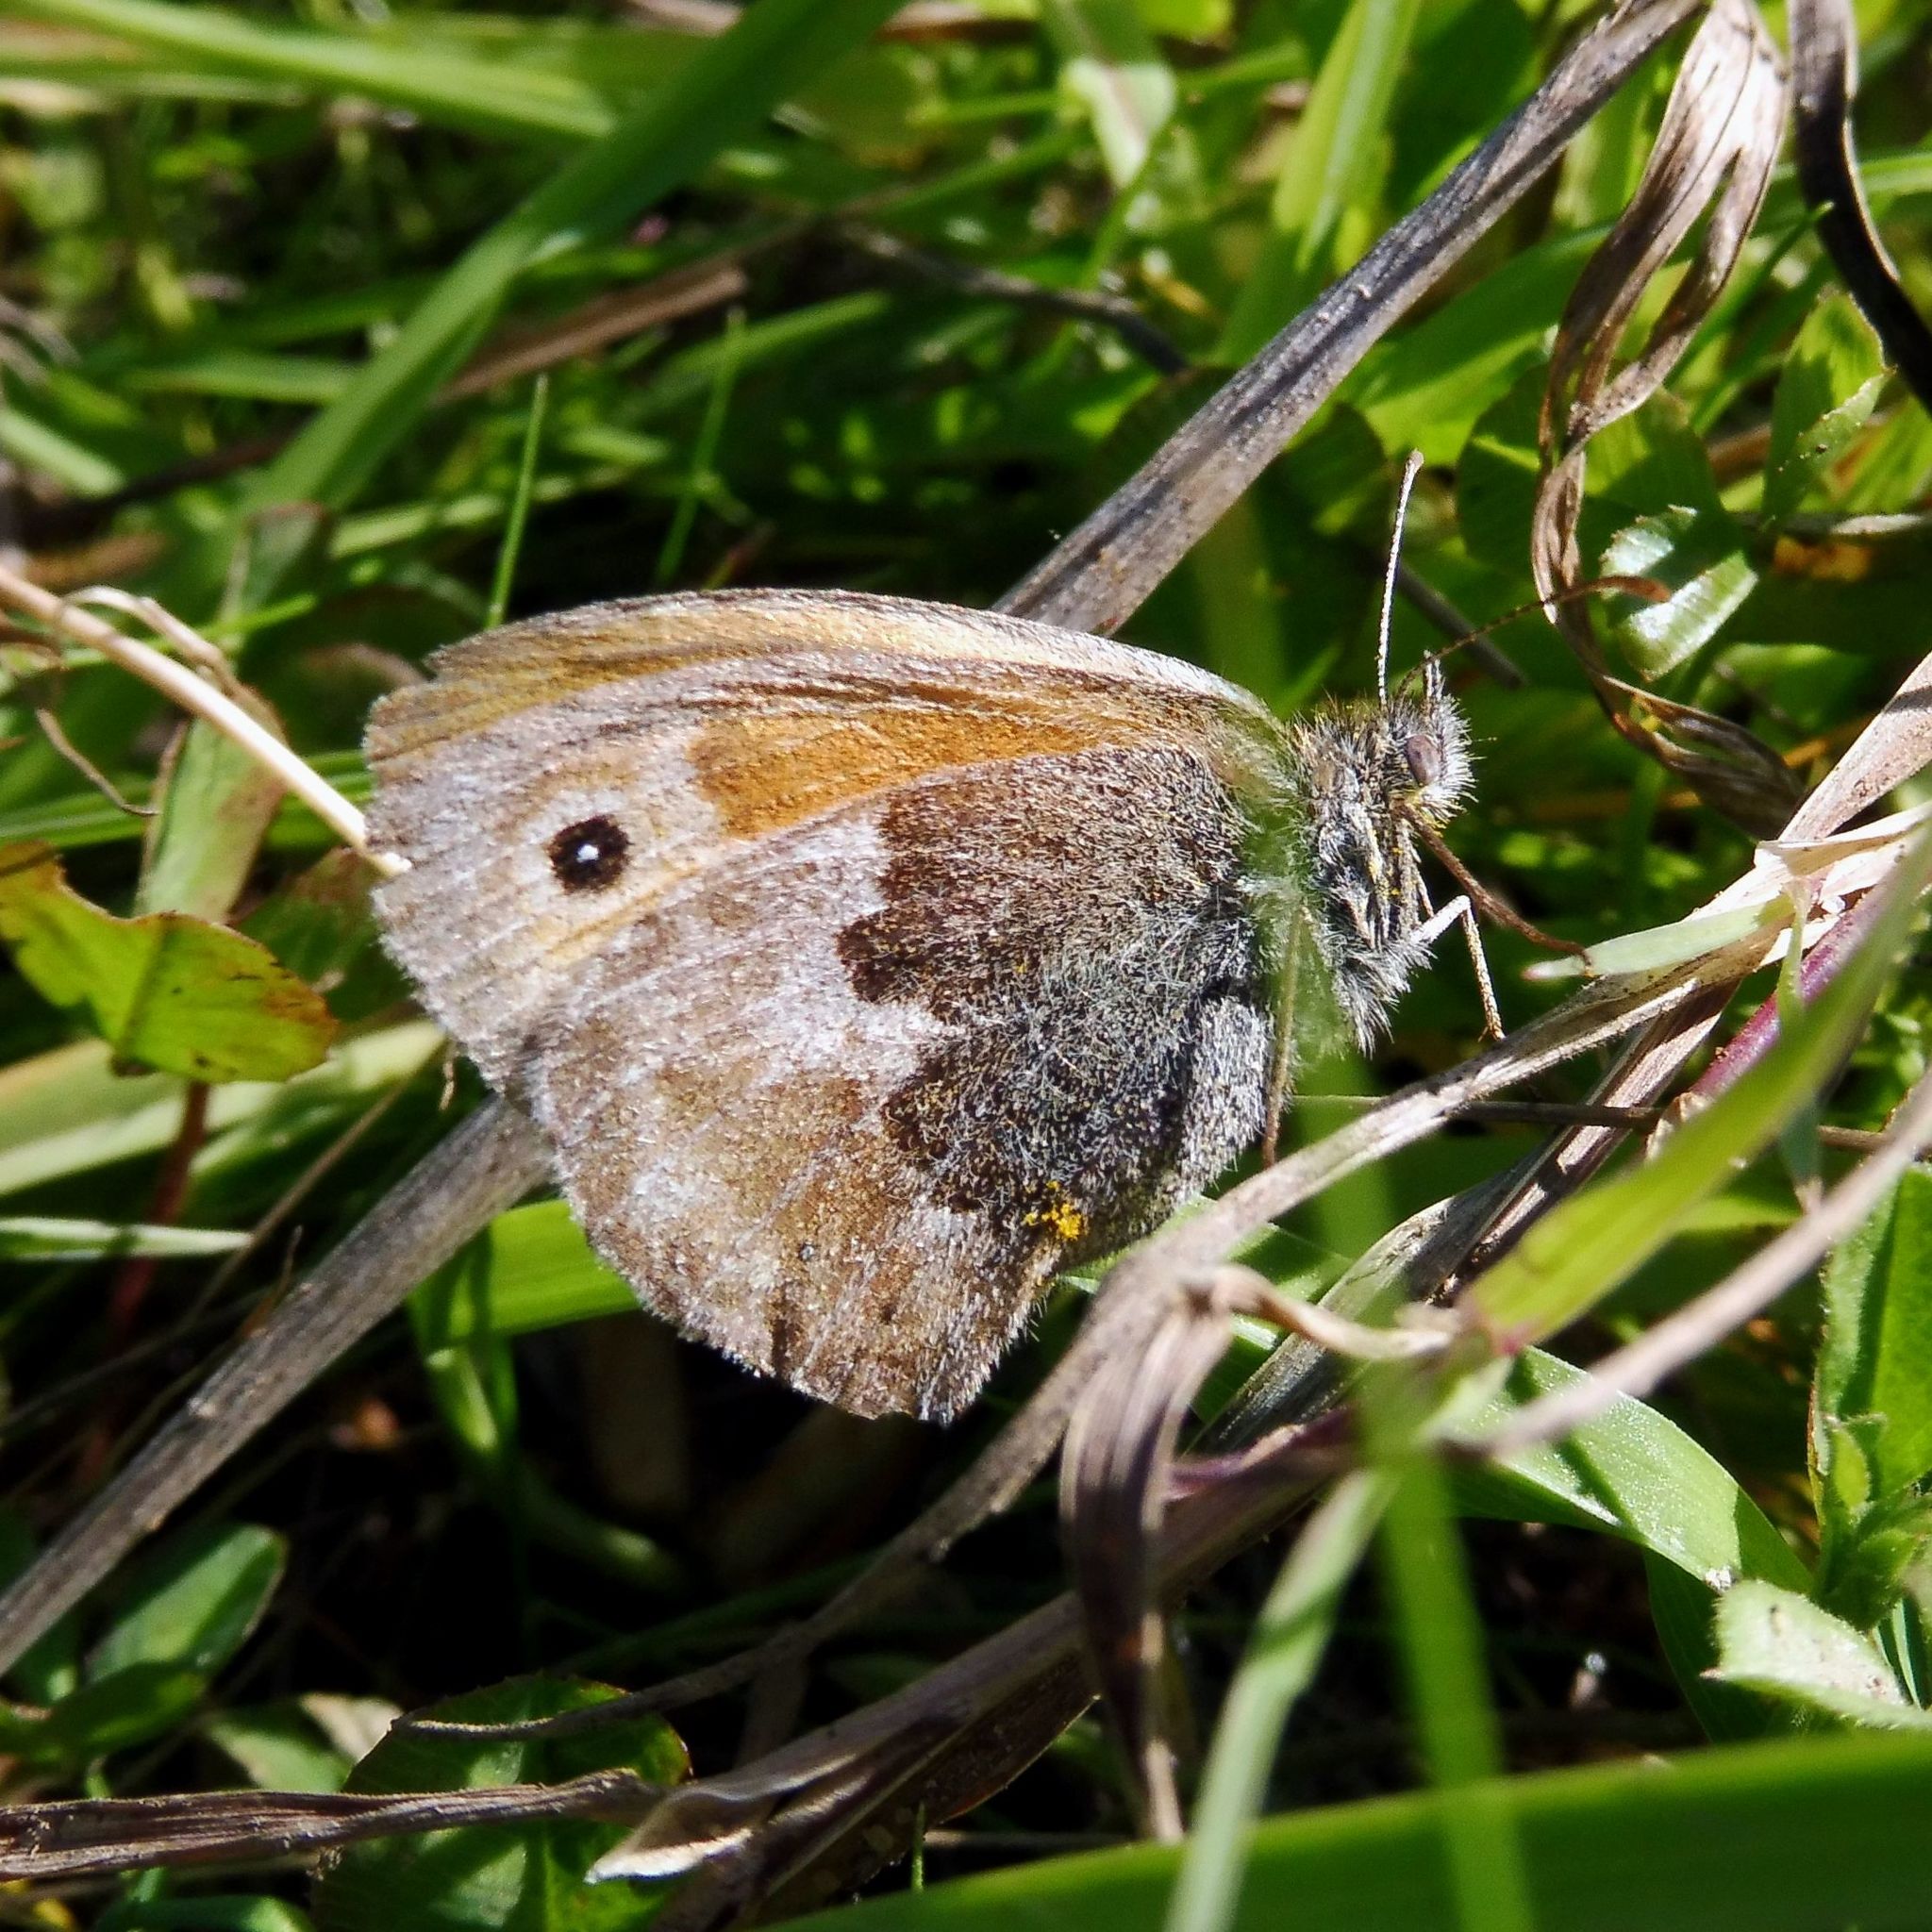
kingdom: Animalia
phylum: Arthropoda
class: Insecta
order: Lepidoptera
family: Nymphalidae
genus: Coenonympha
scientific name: Coenonympha pamphilus
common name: Small heath
